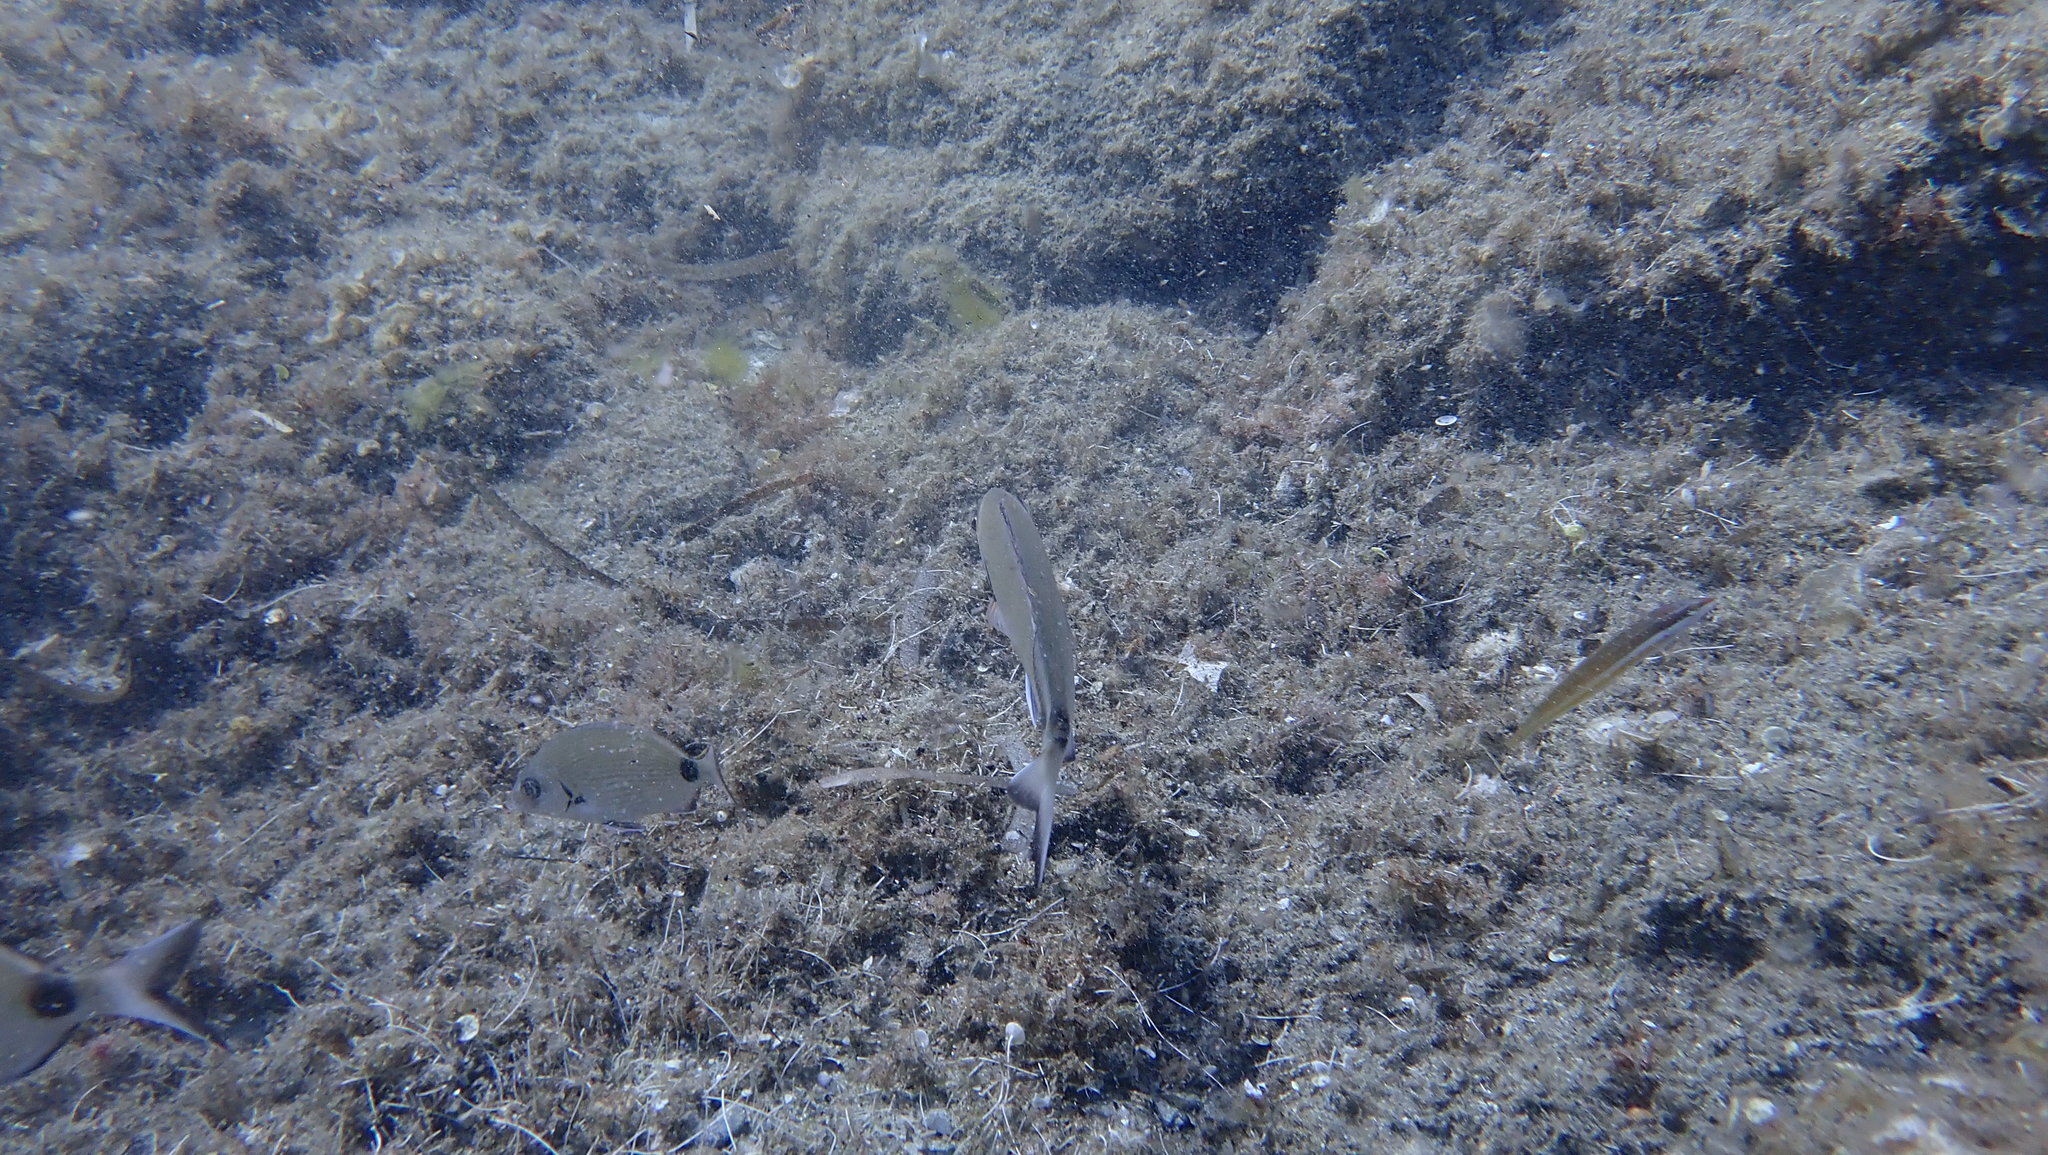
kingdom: Animalia
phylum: Chordata
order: Perciformes
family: Sparidae
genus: Diplodus
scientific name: Diplodus sargus
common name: White seabream
